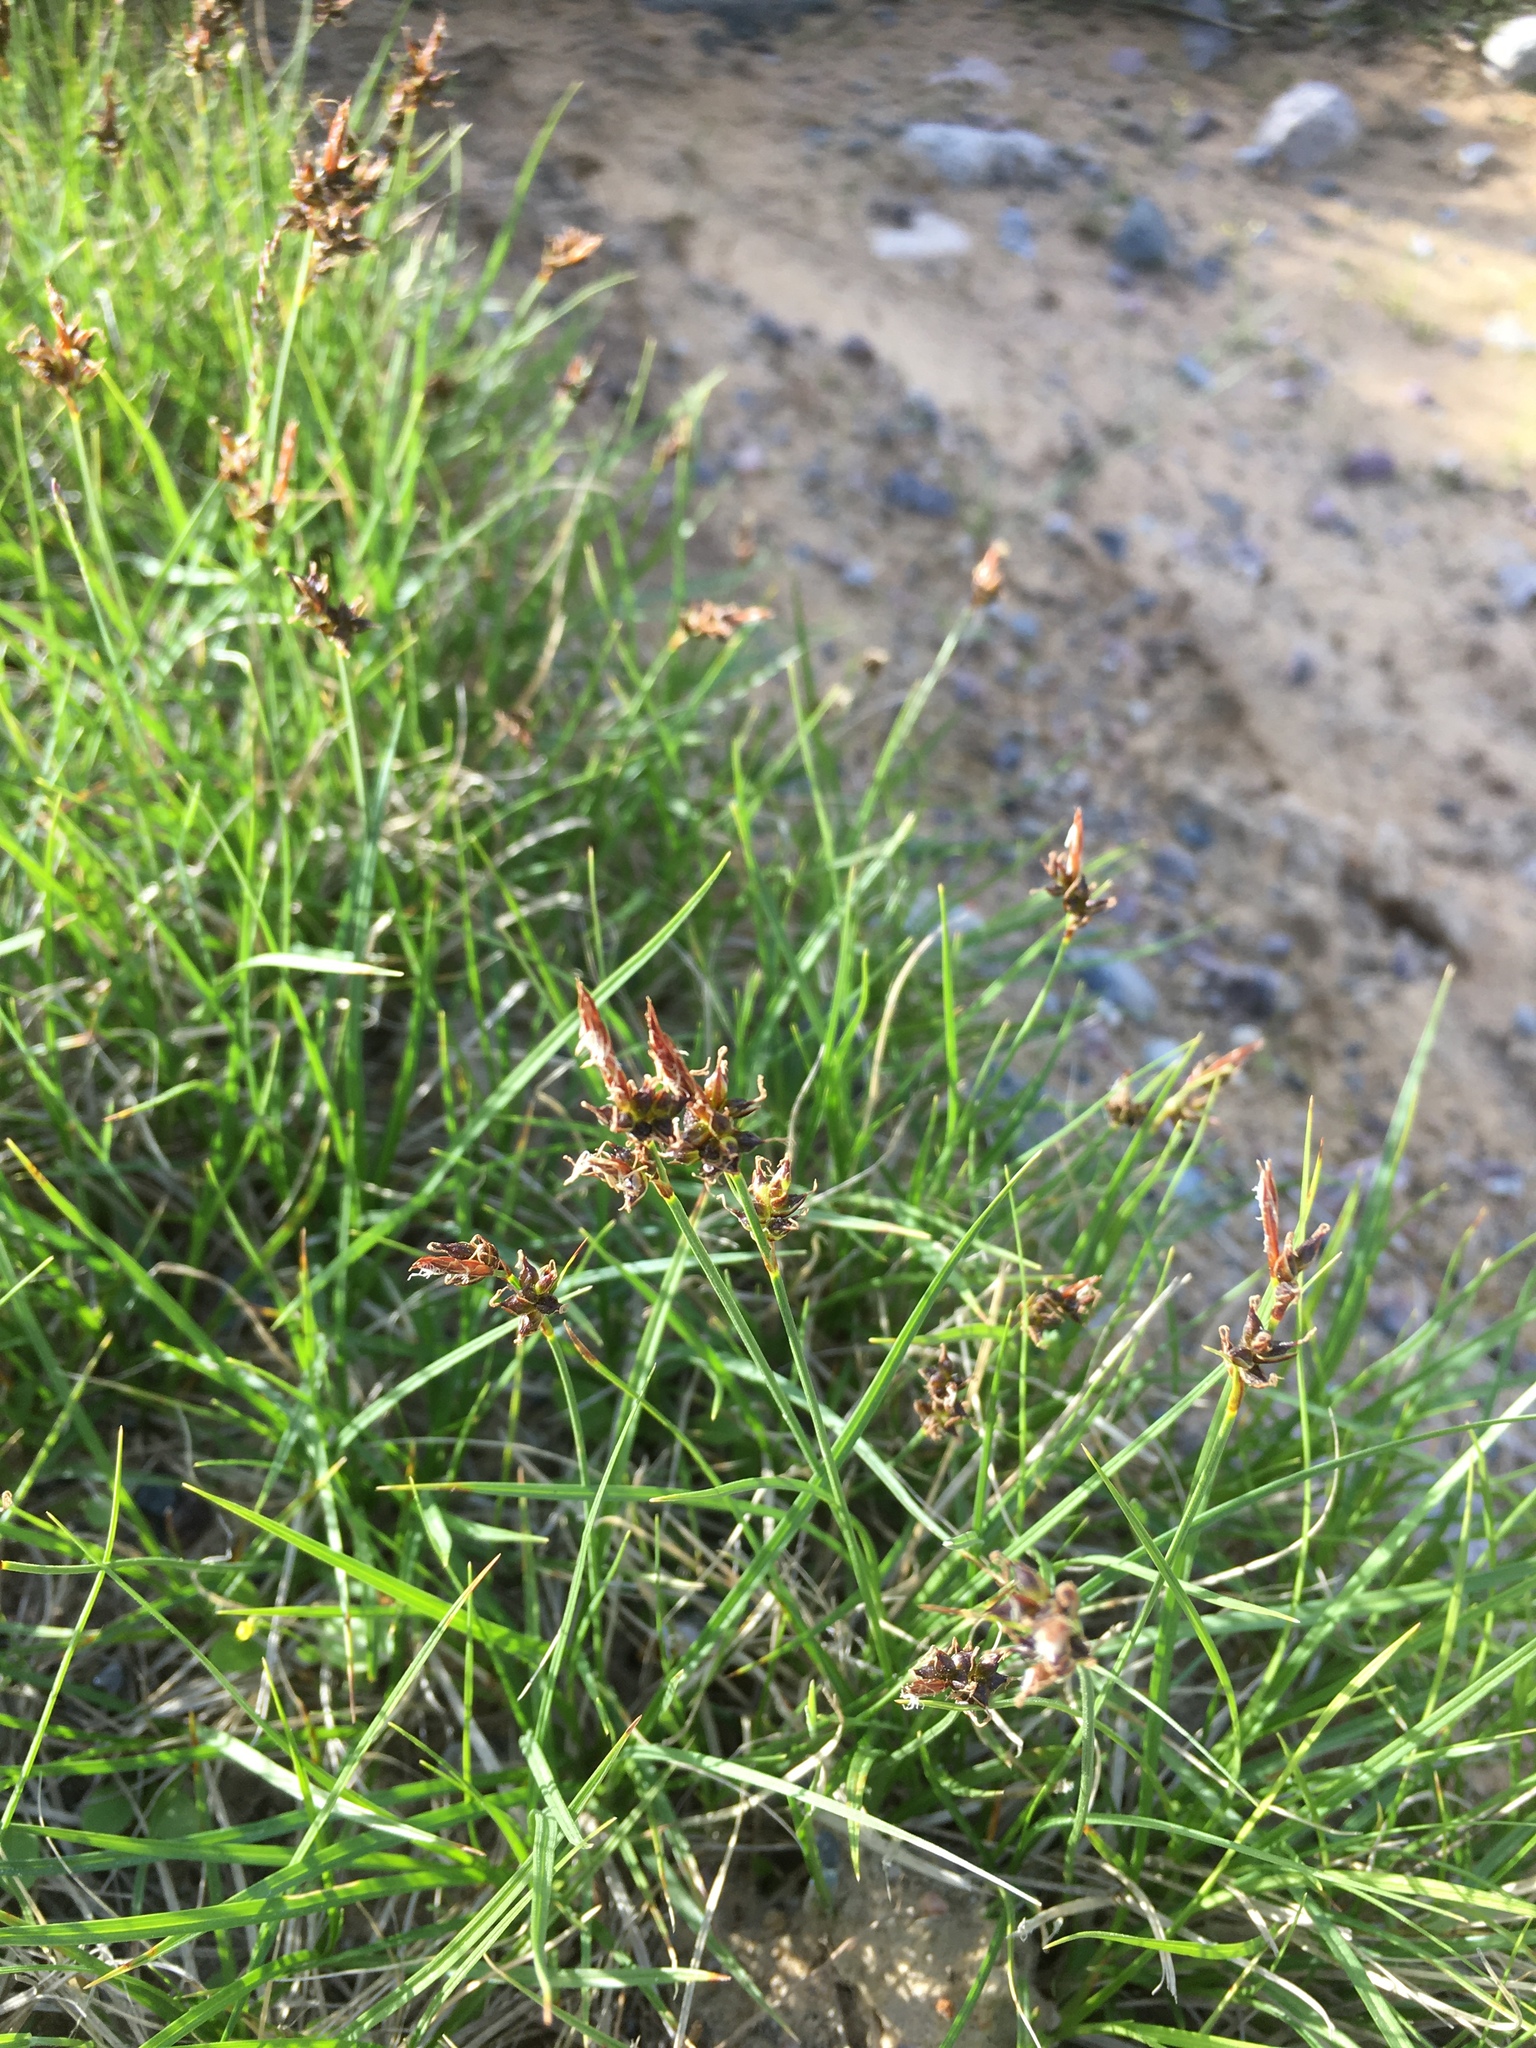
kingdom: Plantae
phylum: Tracheophyta
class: Liliopsida
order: Poales
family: Cyperaceae
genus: Carex
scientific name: Carex deflexa
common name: Bent northern sedge
